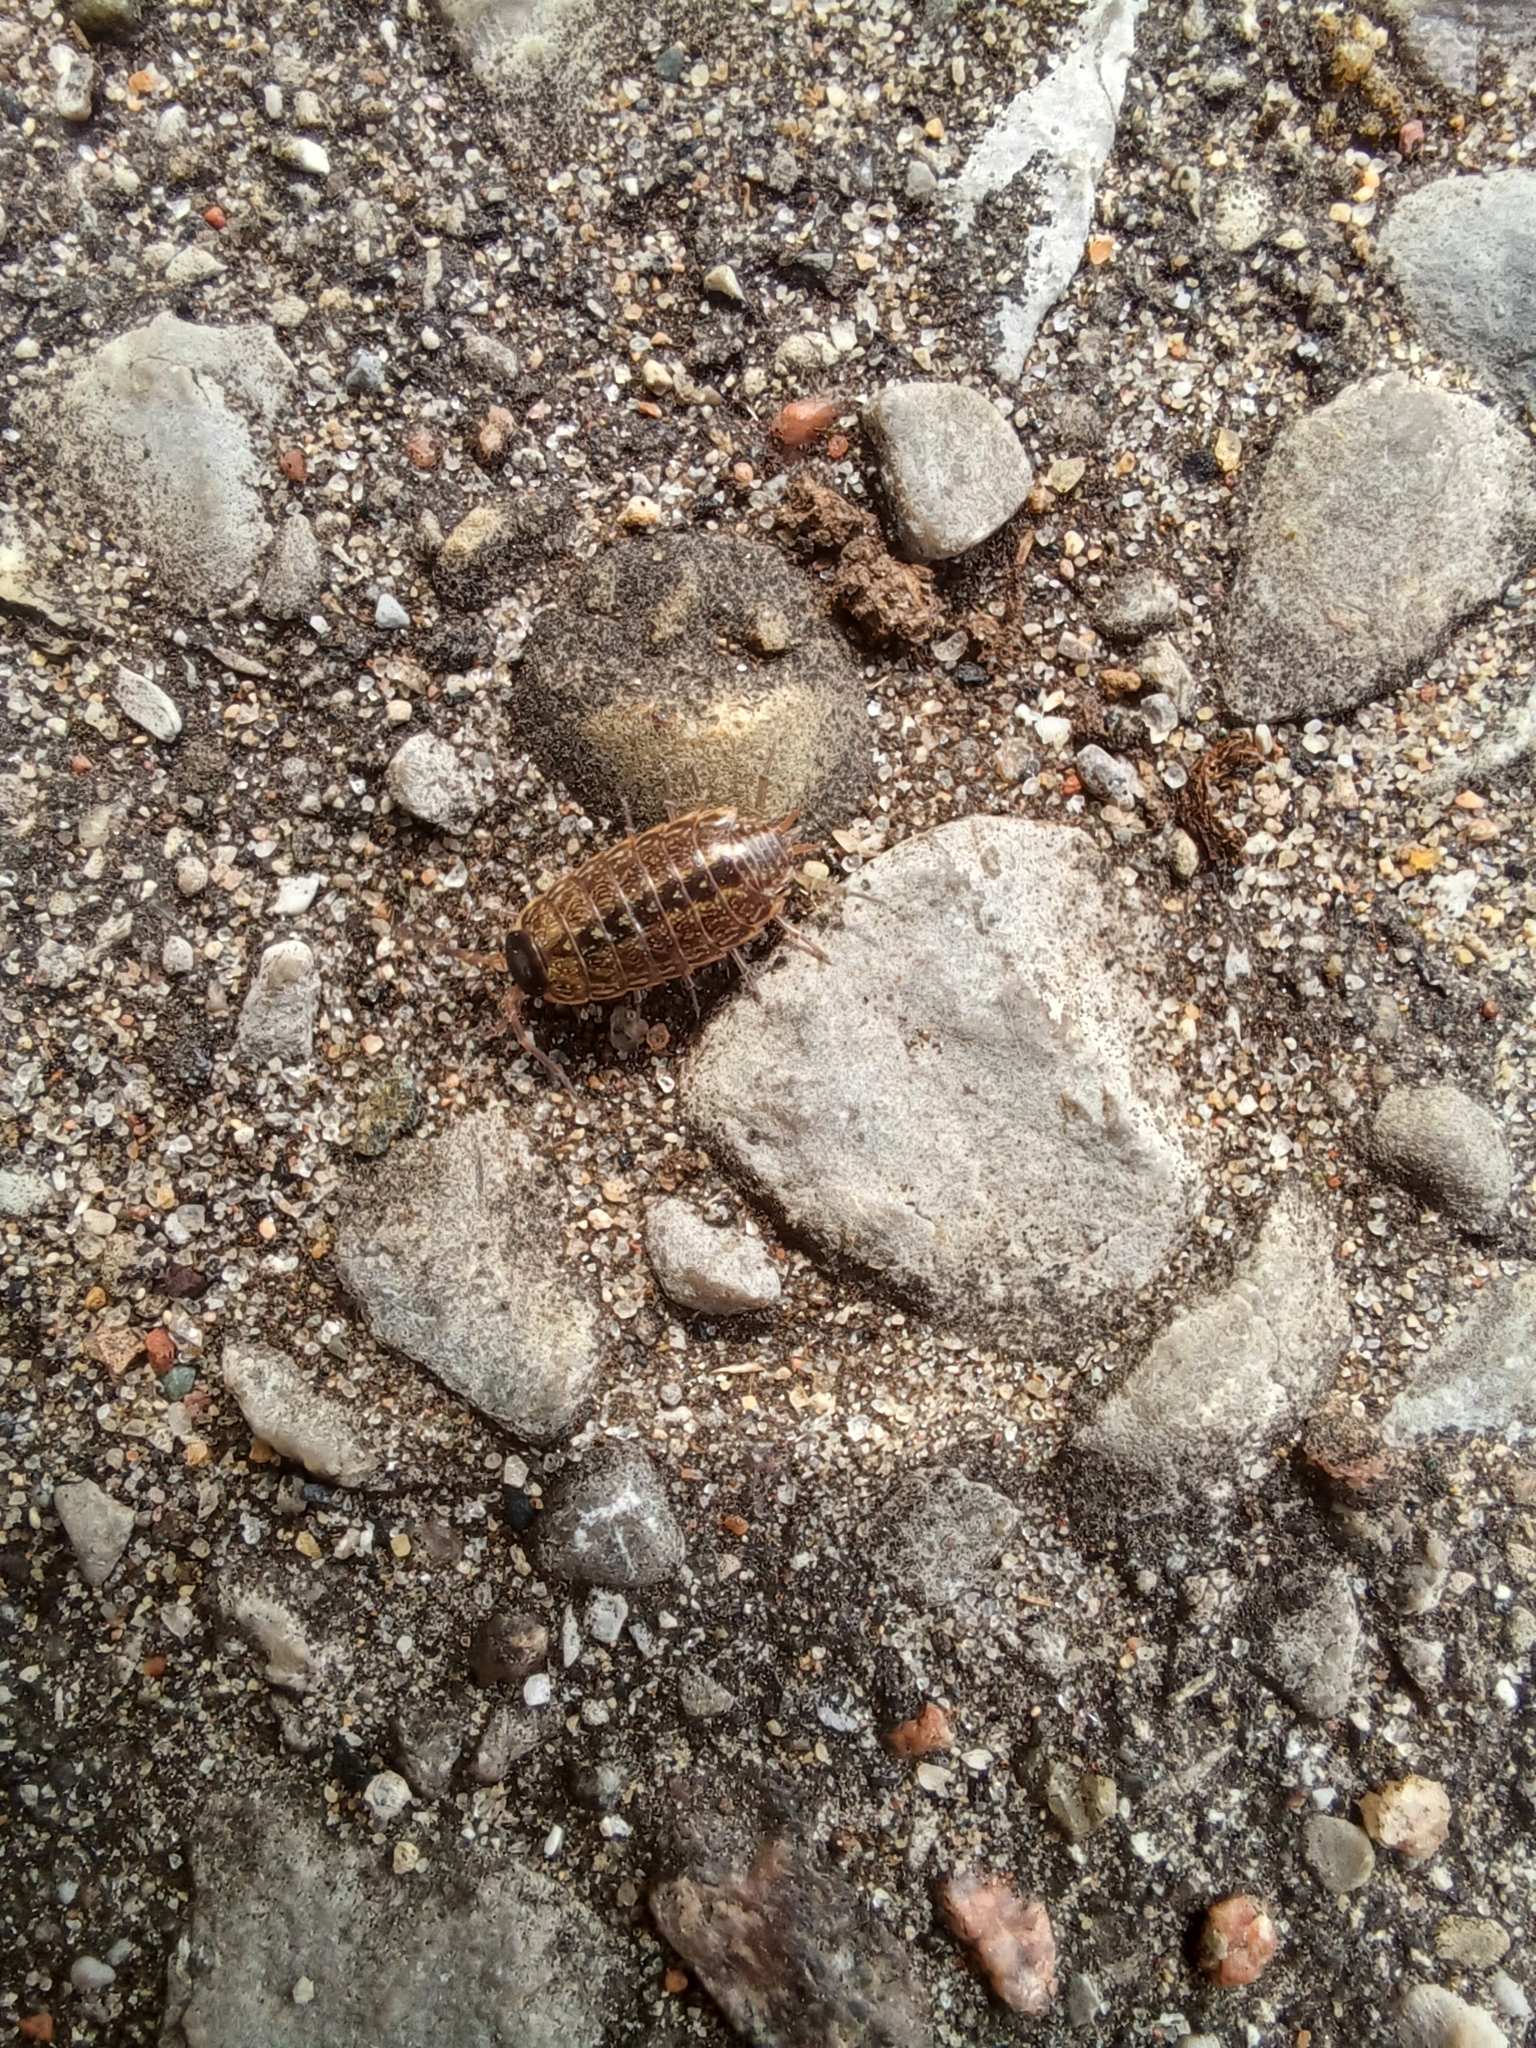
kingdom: Animalia
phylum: Arthropoda
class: Malacostraca
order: Isopoda
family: Philosciidae
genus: Philoscia
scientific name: Philoscia muscorum
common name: Common striped woodlouse
